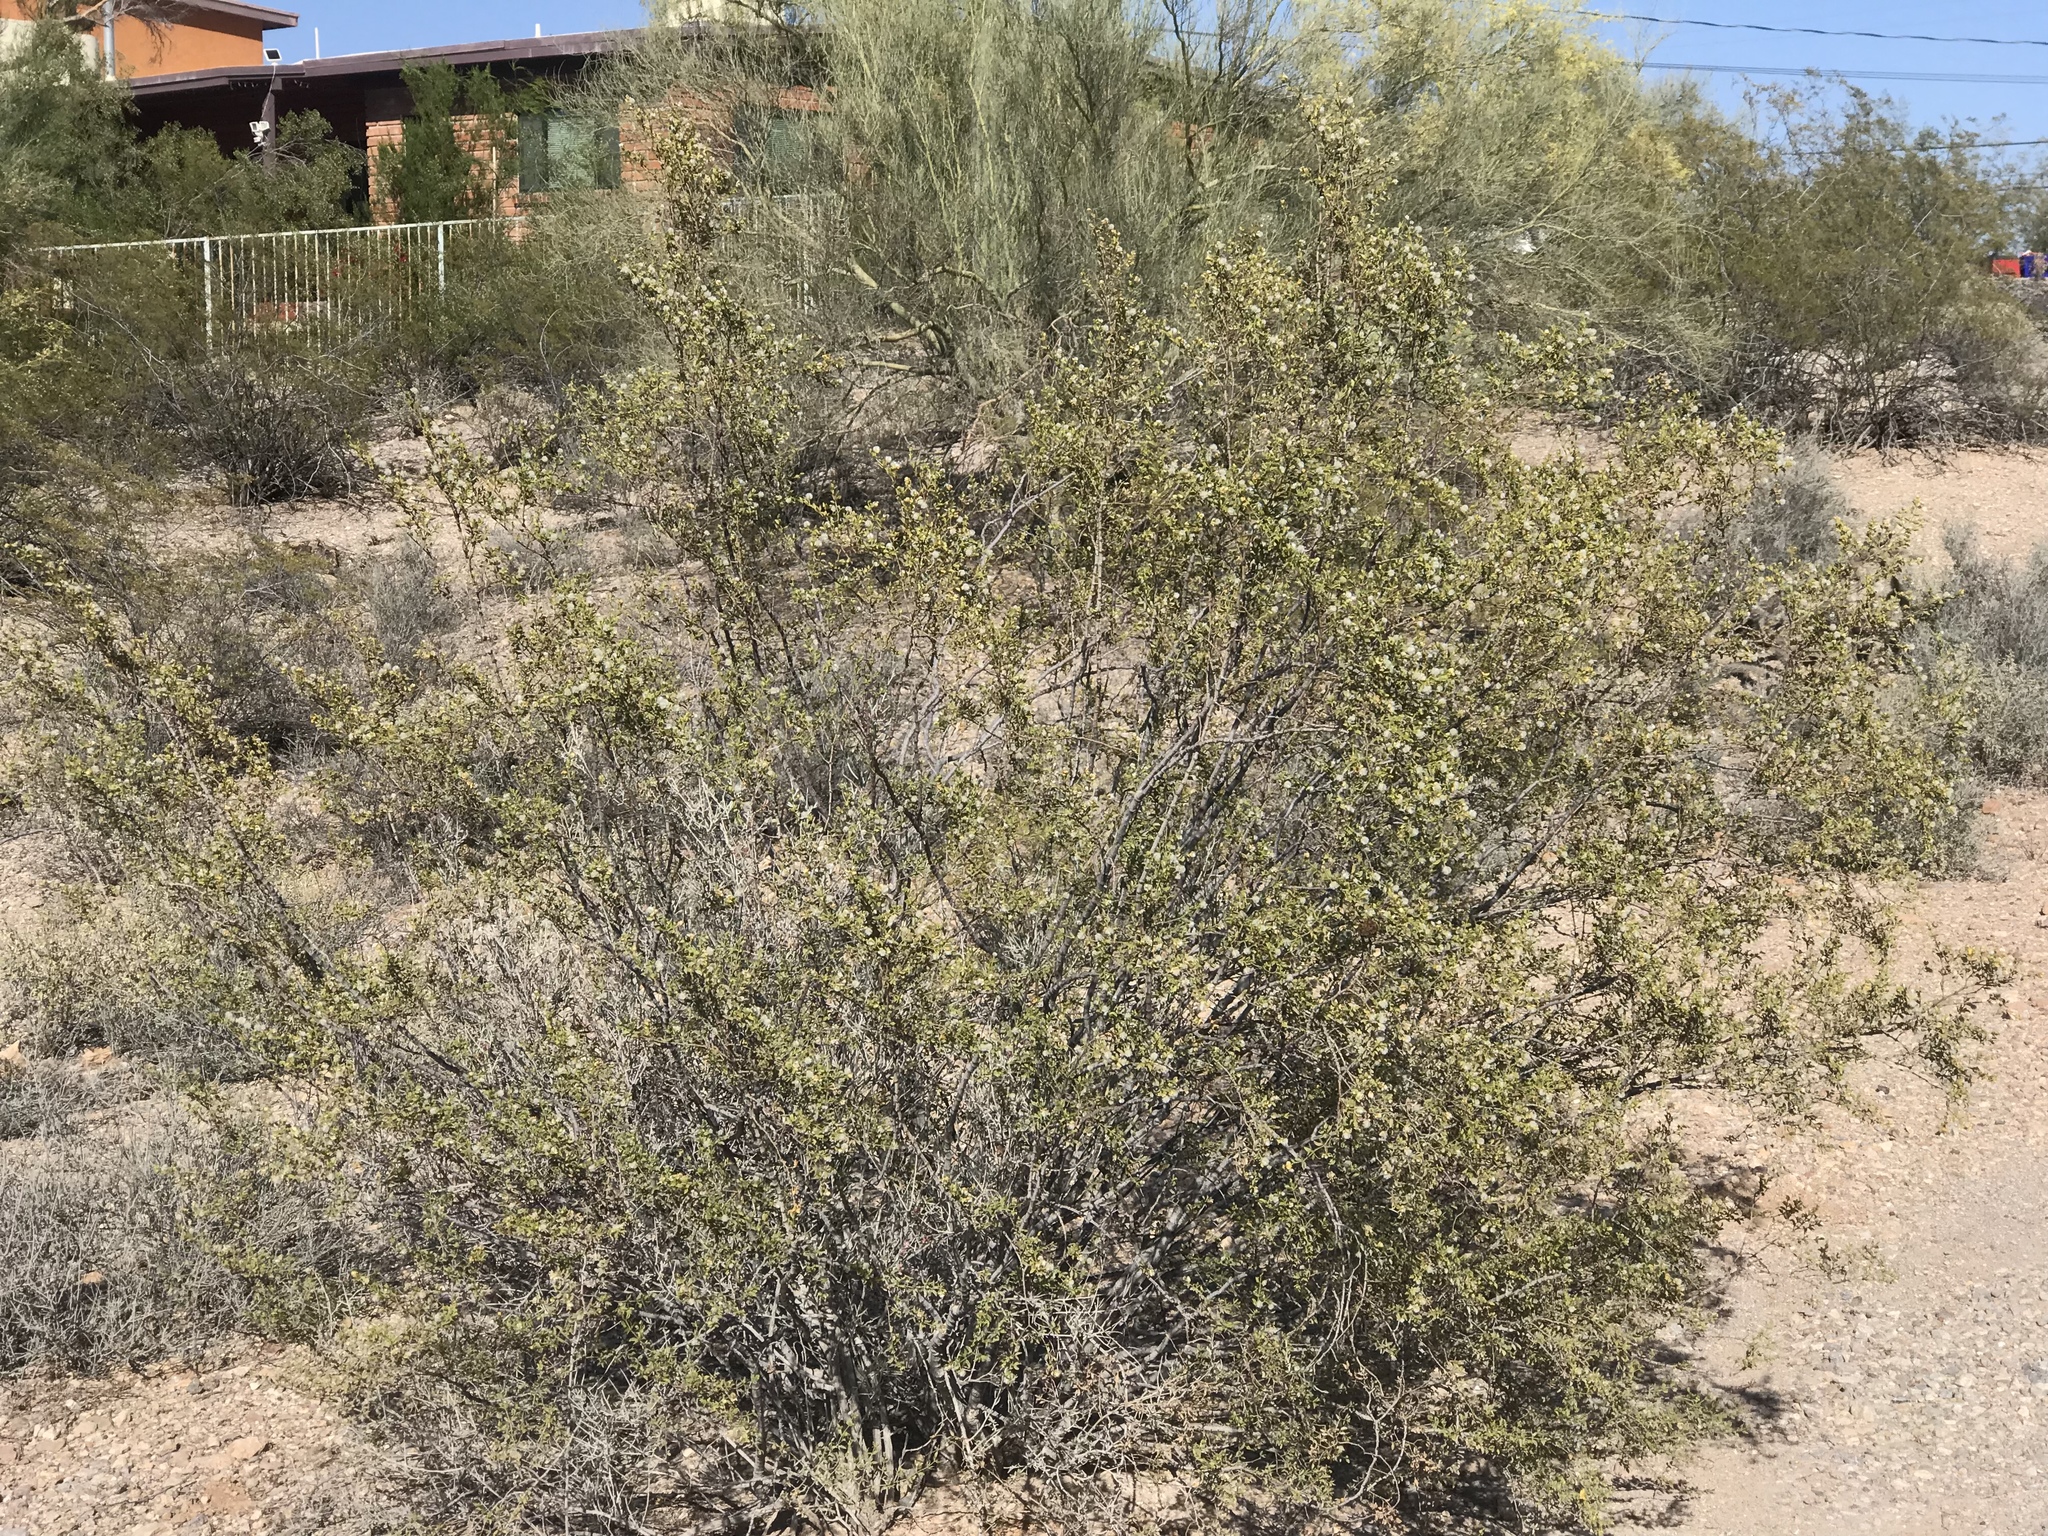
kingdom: Plantae
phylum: Tracheophyta
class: Magnoliopsida
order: Zygophyllales
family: Zygophyllaceae
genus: Larrea
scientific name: Larrea tridentata
